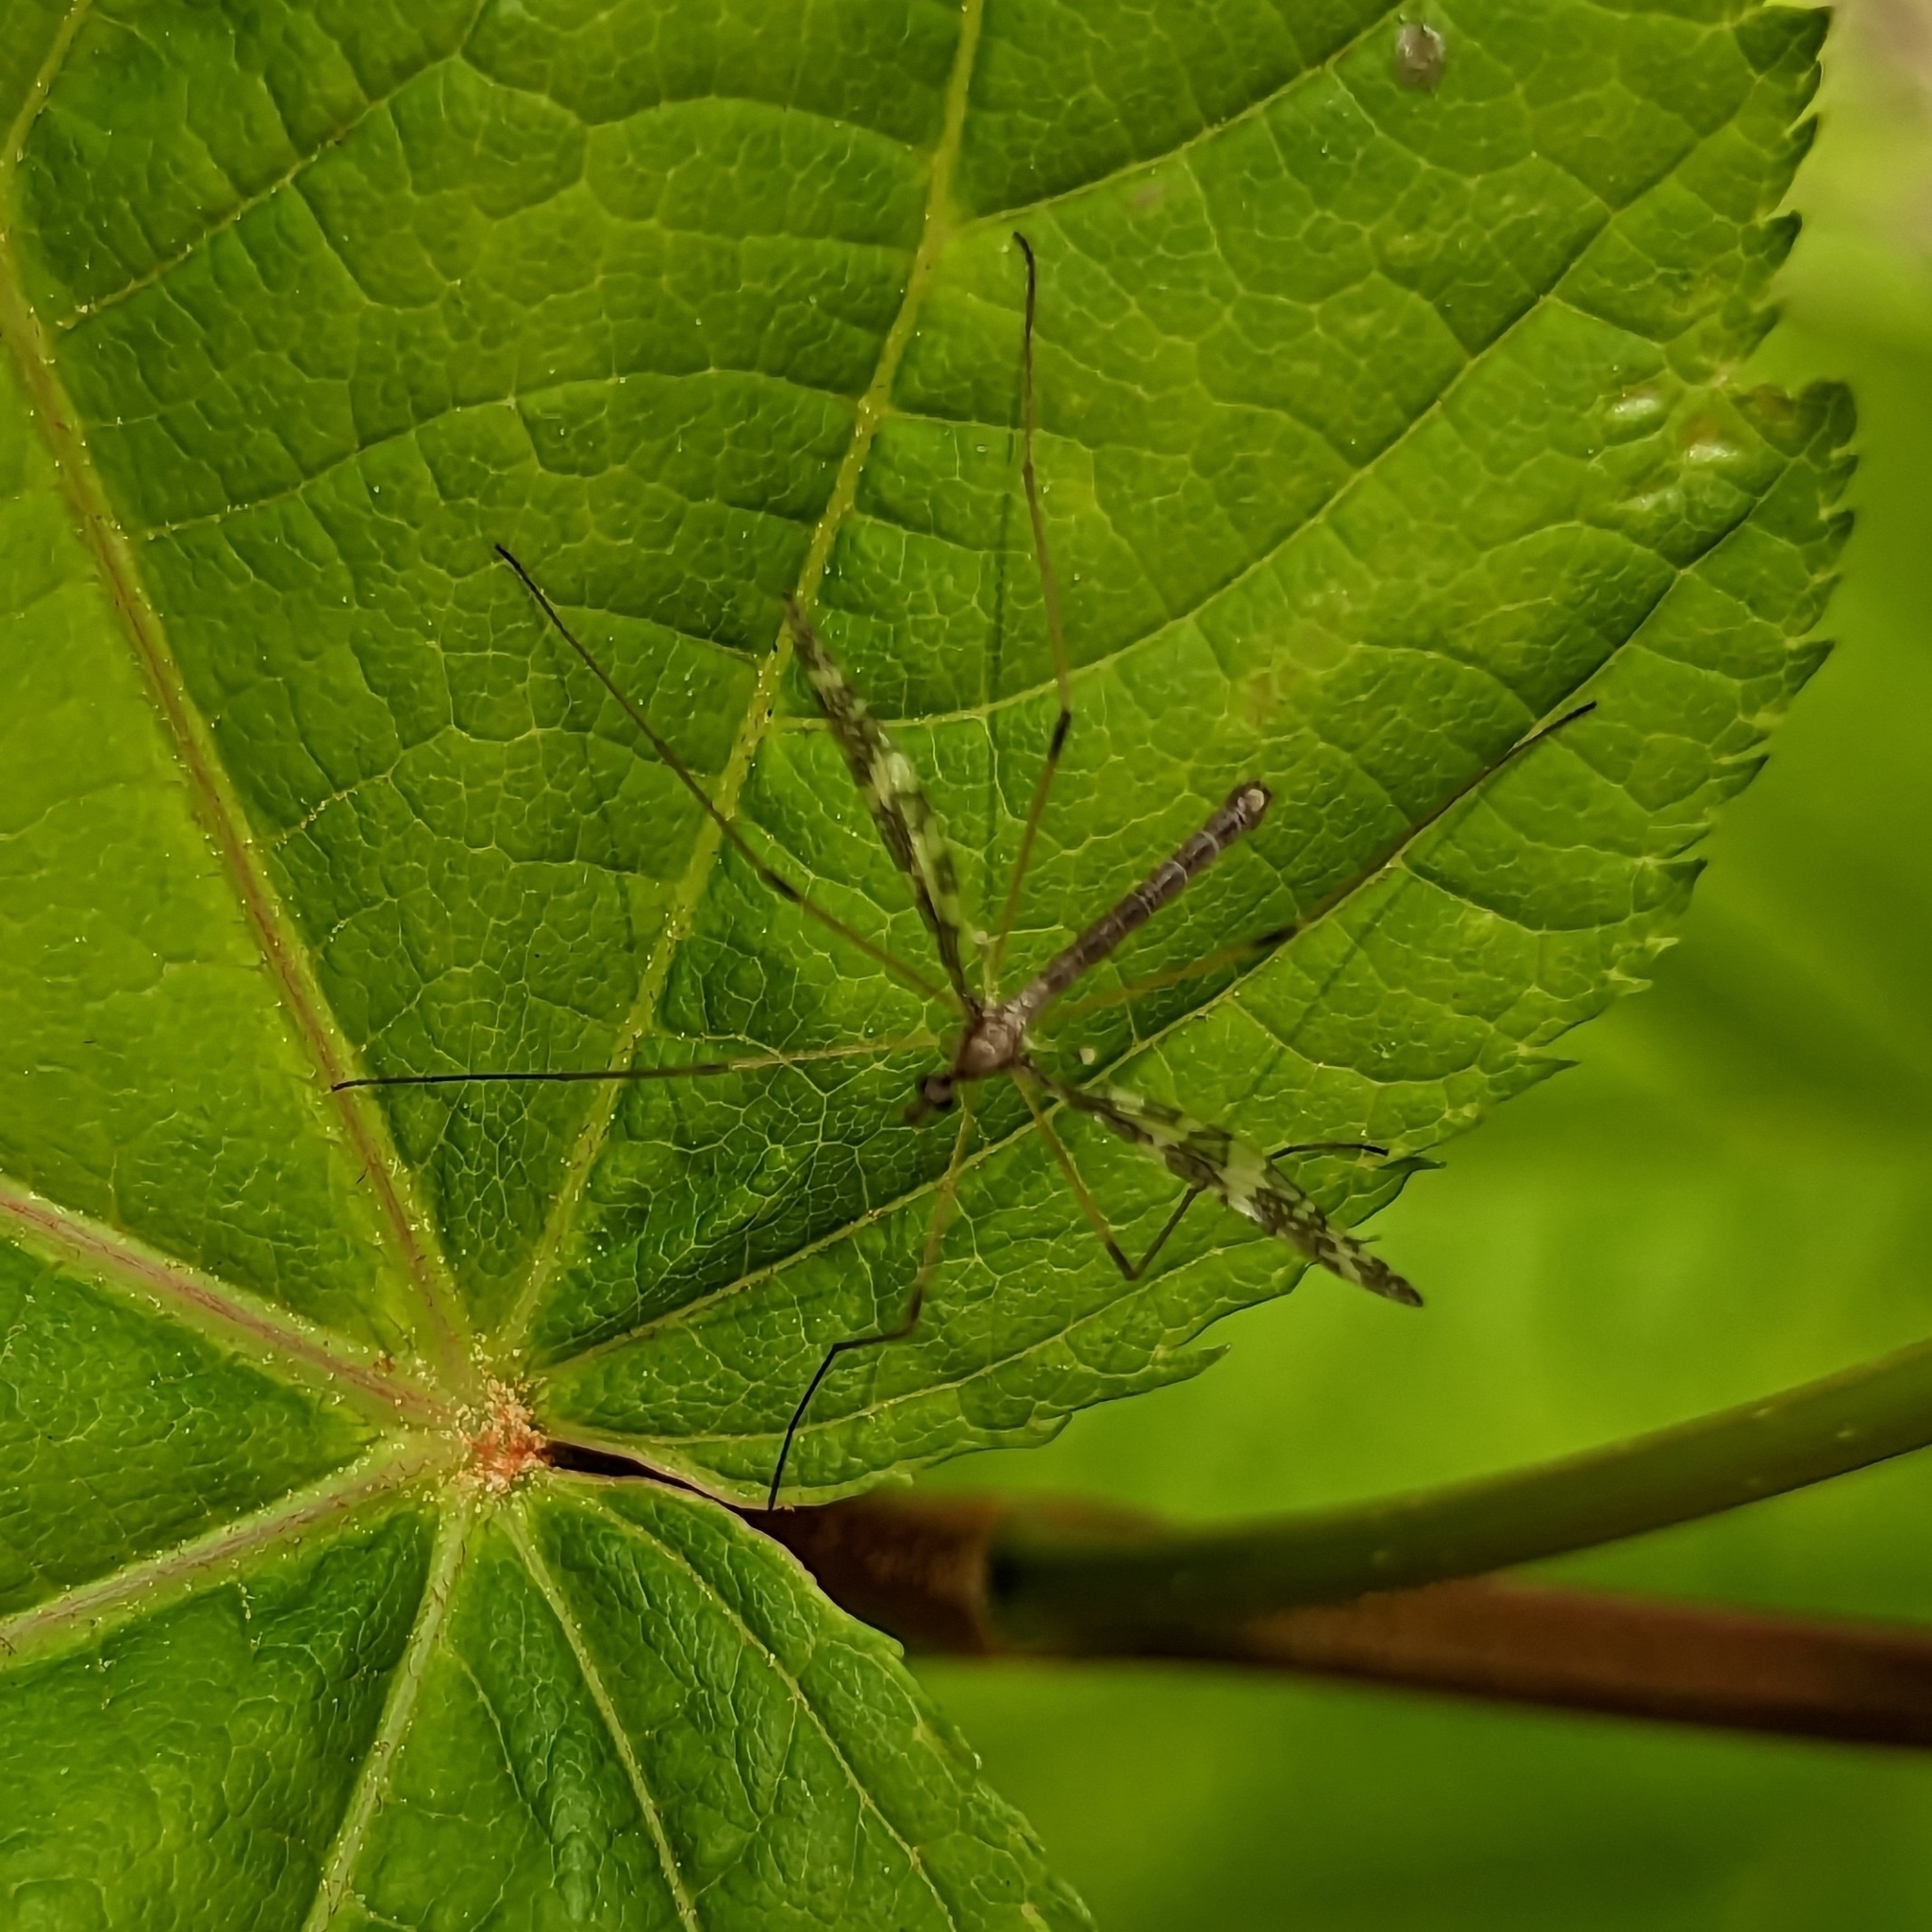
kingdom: Animalia
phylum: Arthropoda
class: Insecta
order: Diptera
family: Limoniidae
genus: Epiphragma
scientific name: Epiphragma fasciapenne
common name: Band-winged crane fly
